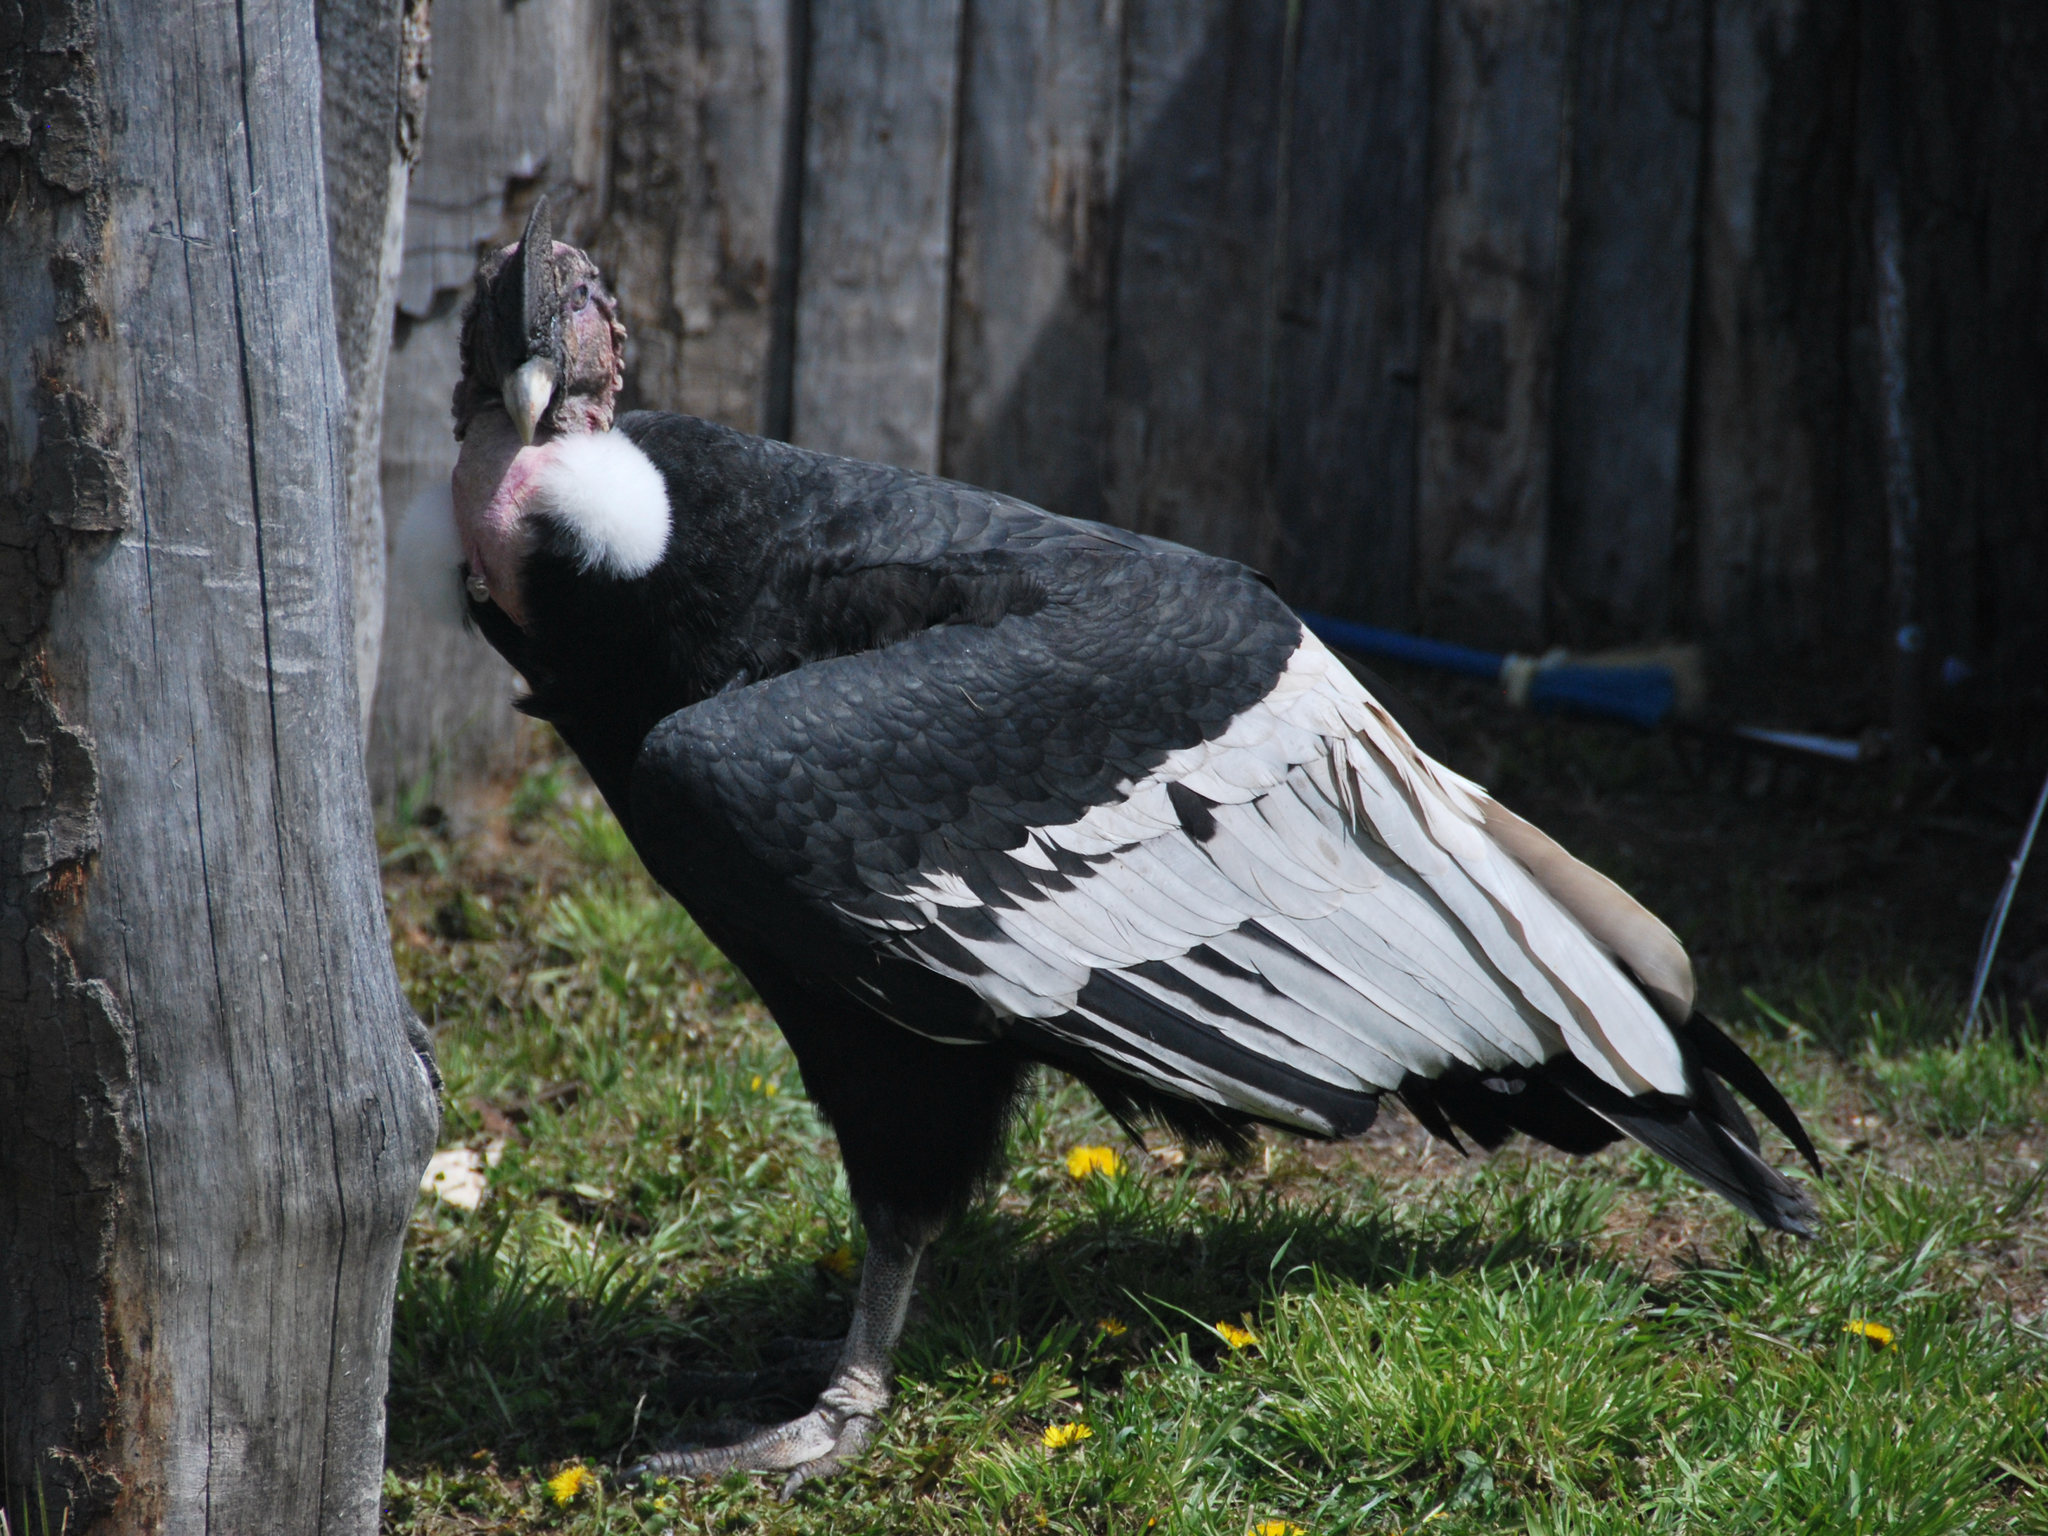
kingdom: Animalia
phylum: Chordata
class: Aves
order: Accipitriformes
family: Cathartidae
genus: Vultur
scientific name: Vultur gryphus
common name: Andean condor
